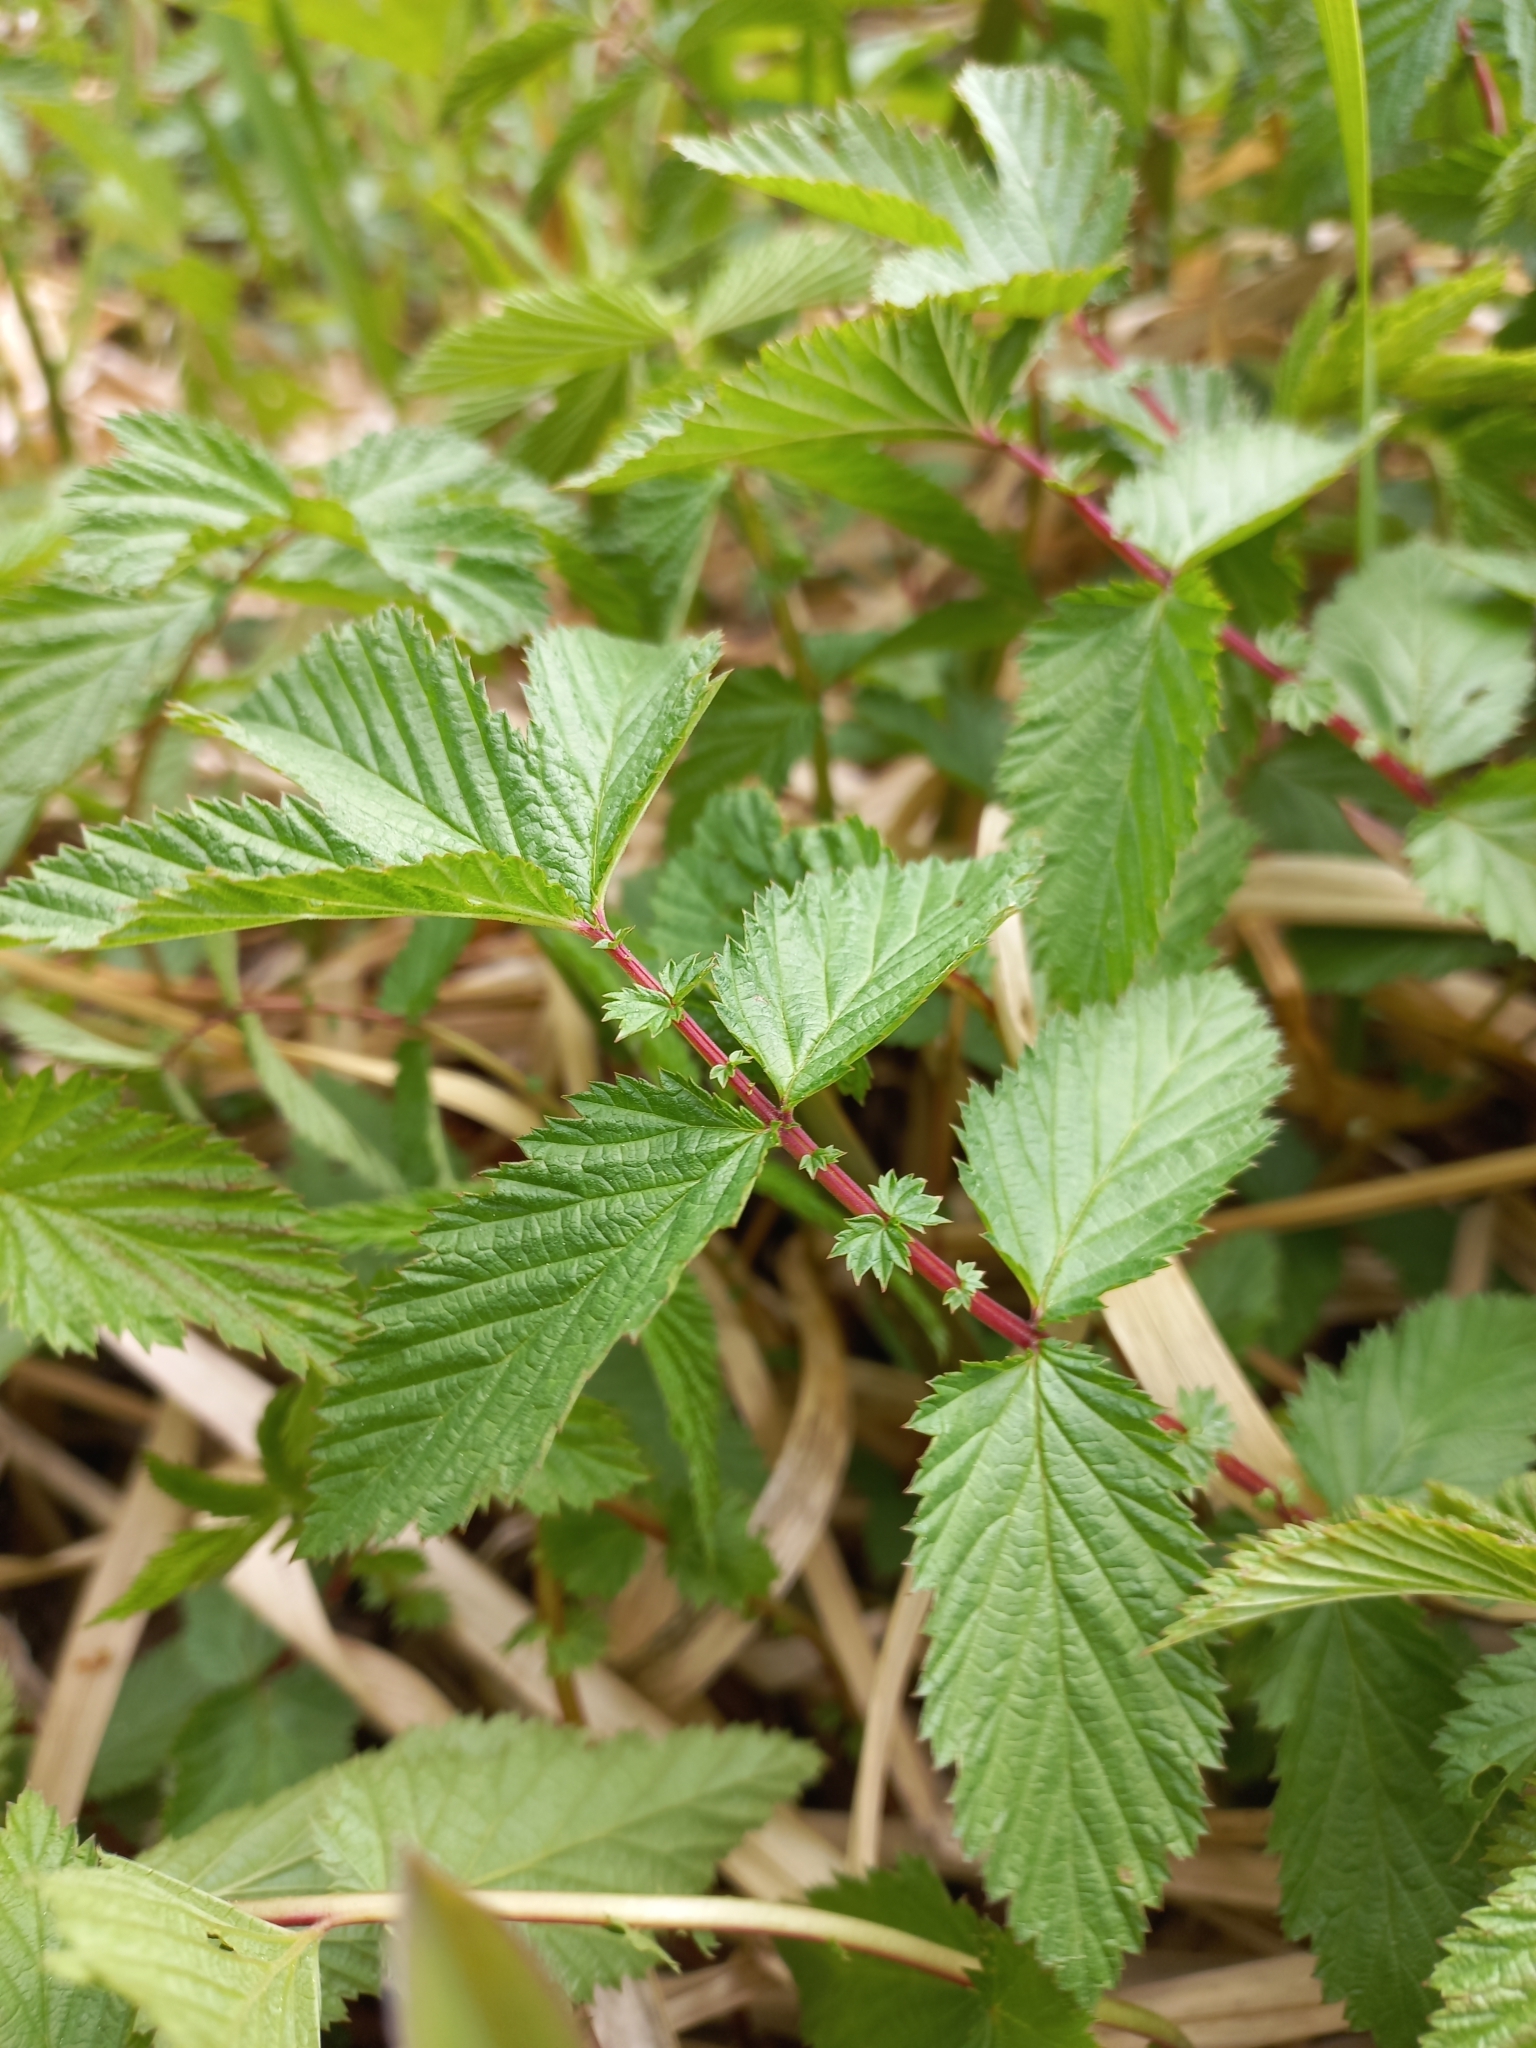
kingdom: Plantae
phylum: Tracheophyta
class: Magnoliopsida
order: Rosales
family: Rosaceae
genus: Filipendula
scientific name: Filipendula ulmaria
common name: Meadowsweet
